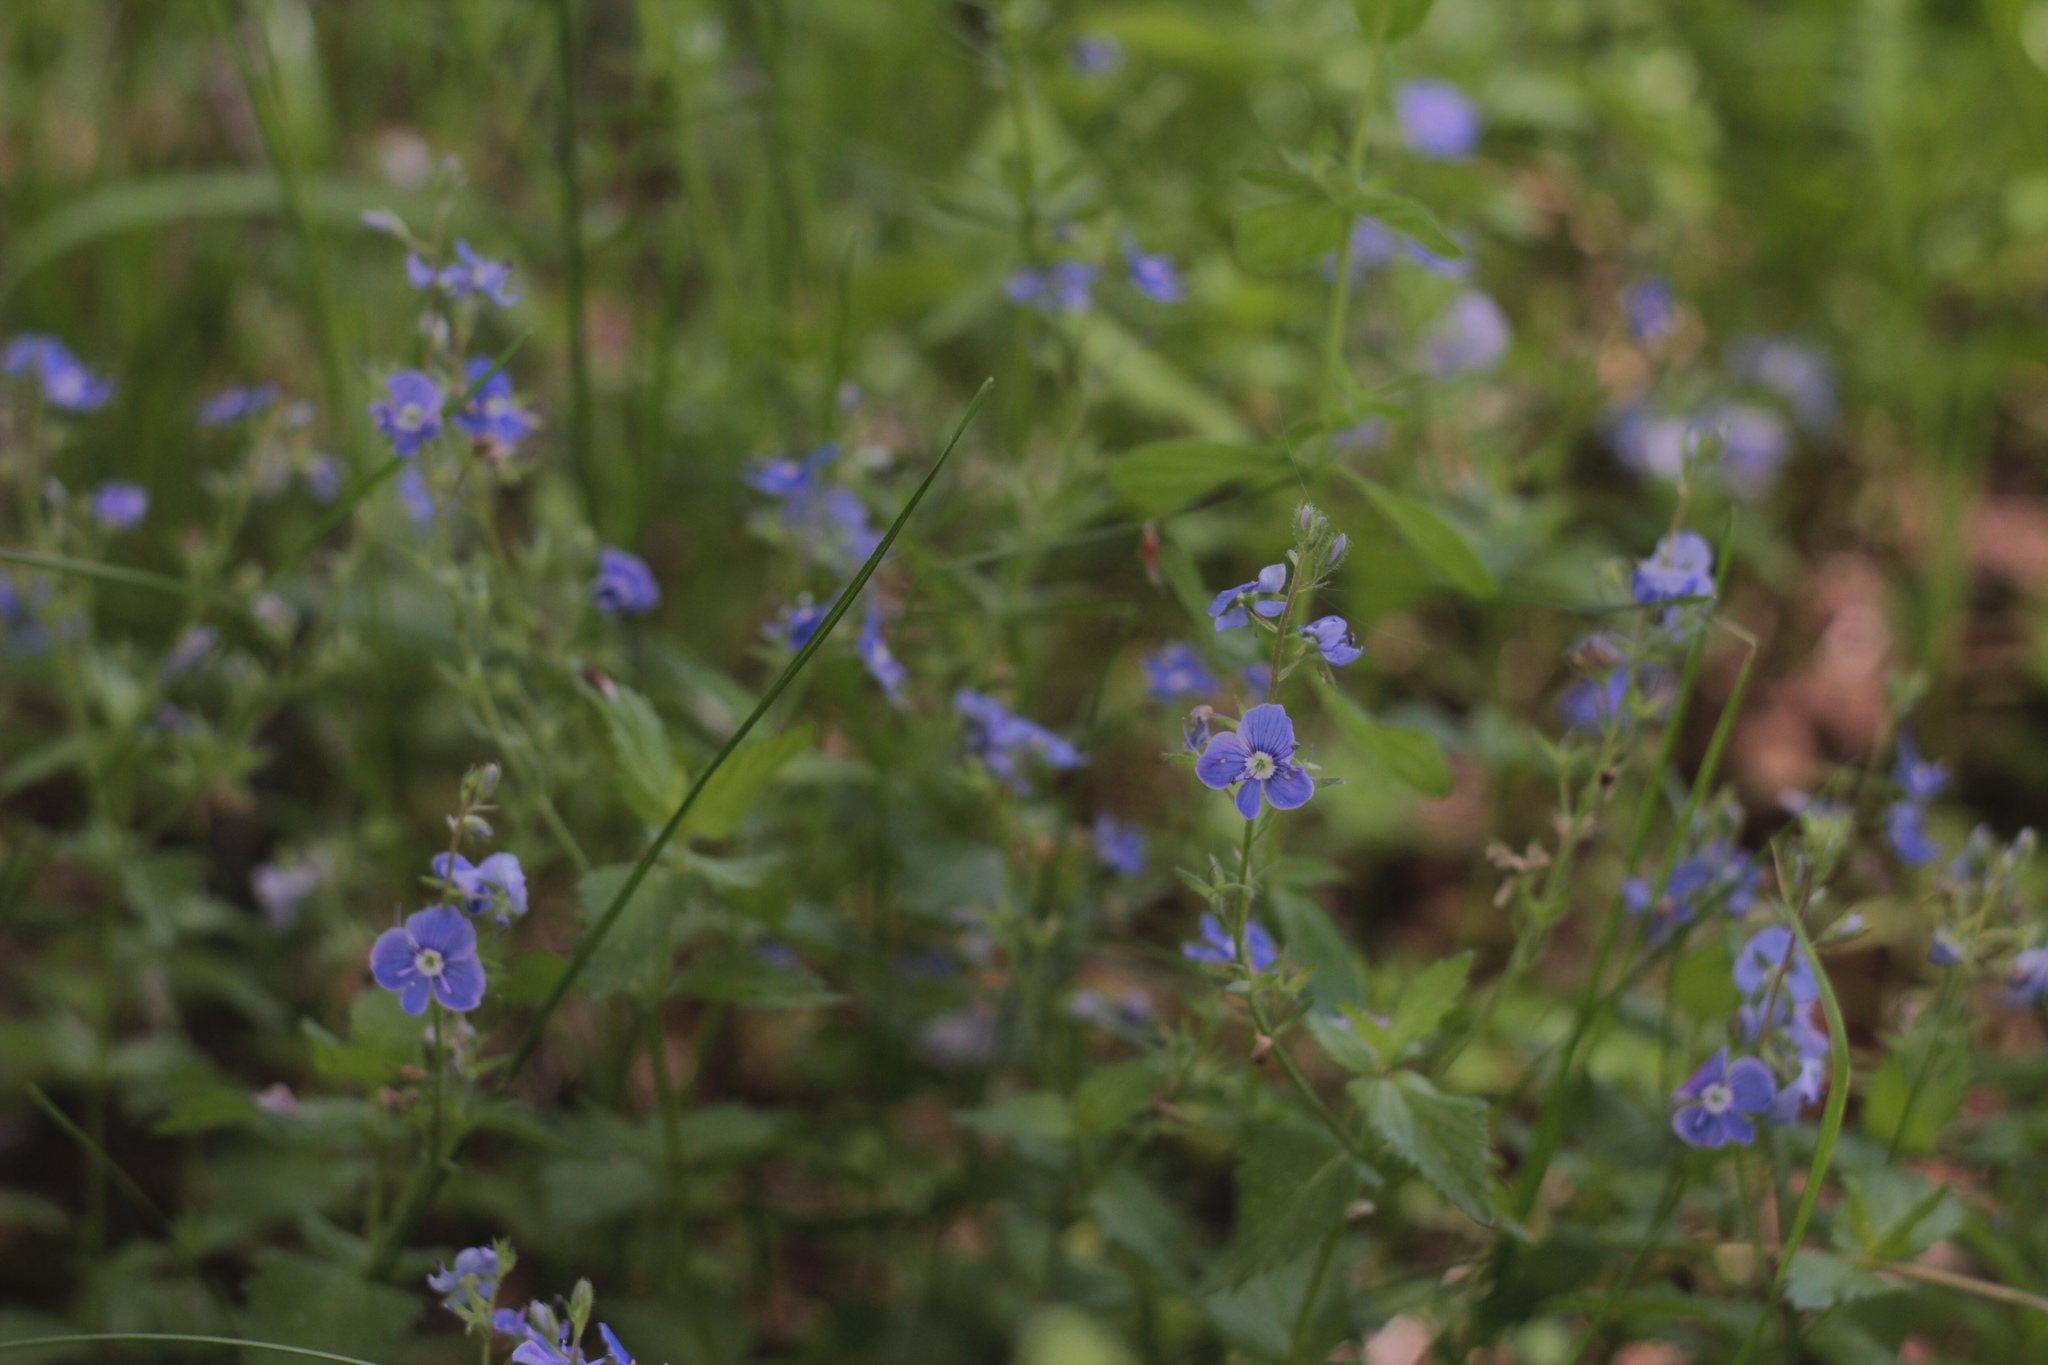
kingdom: Plantae
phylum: Tracheophyta
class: Magnoliopsida
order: Lamiales
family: Plantaginaceae
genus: Veronica
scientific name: Veronica chamaedrys
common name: Germander speedwell
